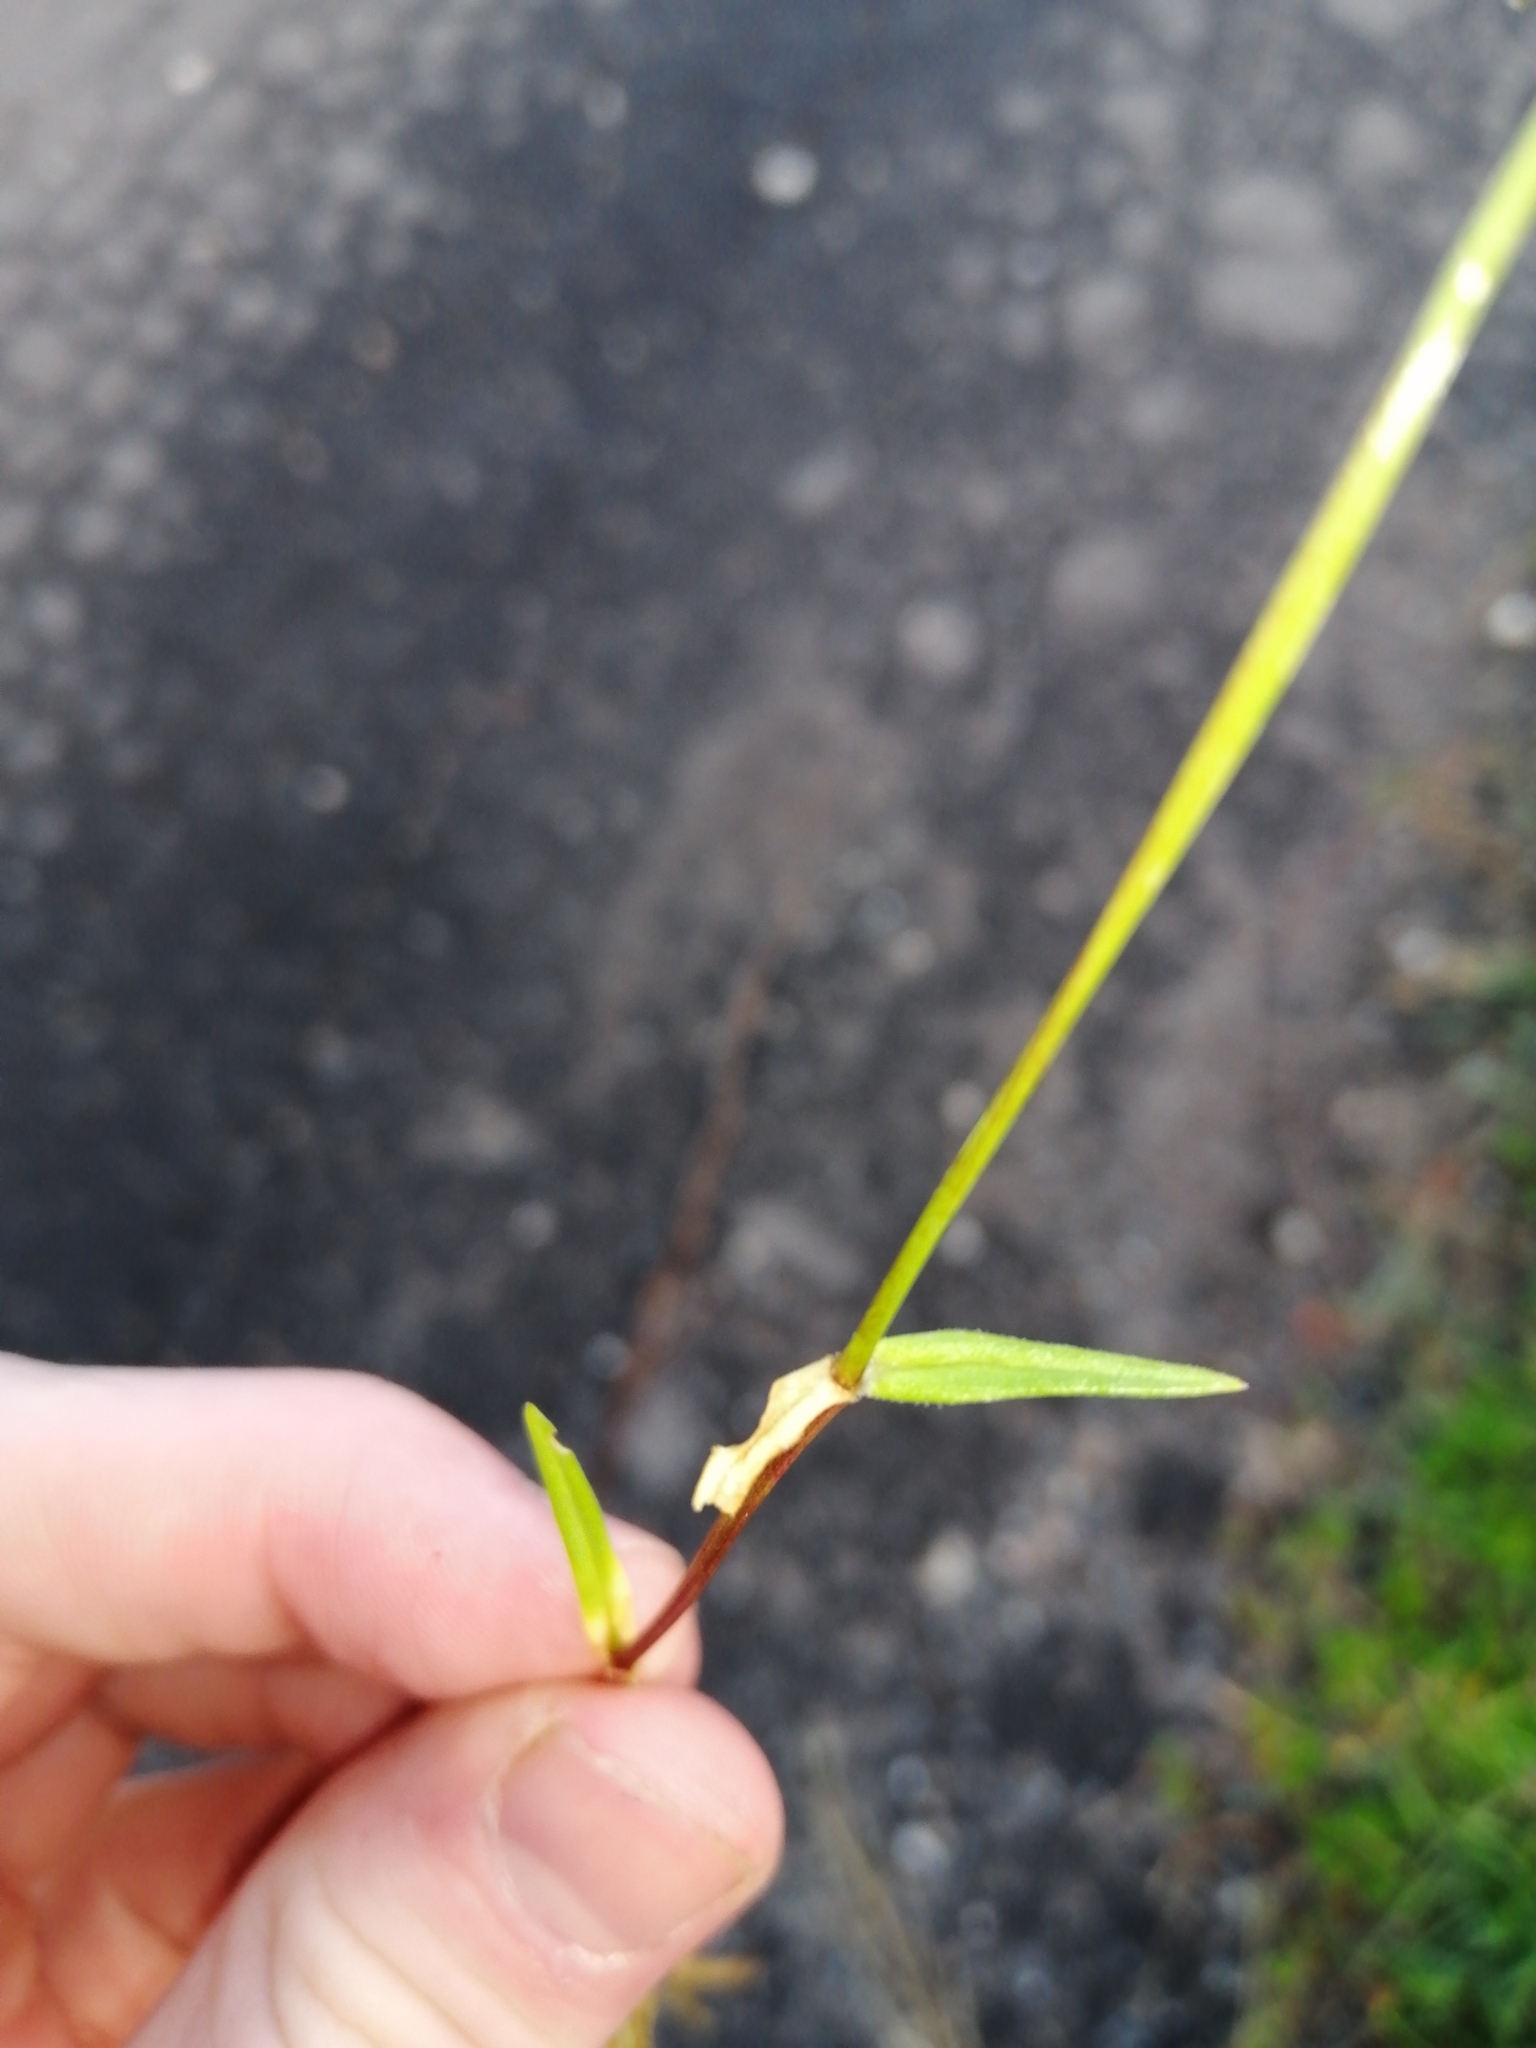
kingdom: Plantae
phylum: Tracheophyta
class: Magnoliopsida
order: Caryophyllales
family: Caryophyllaceae
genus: Stellaria
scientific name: Stellaria graminea
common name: Grass-like starwort
